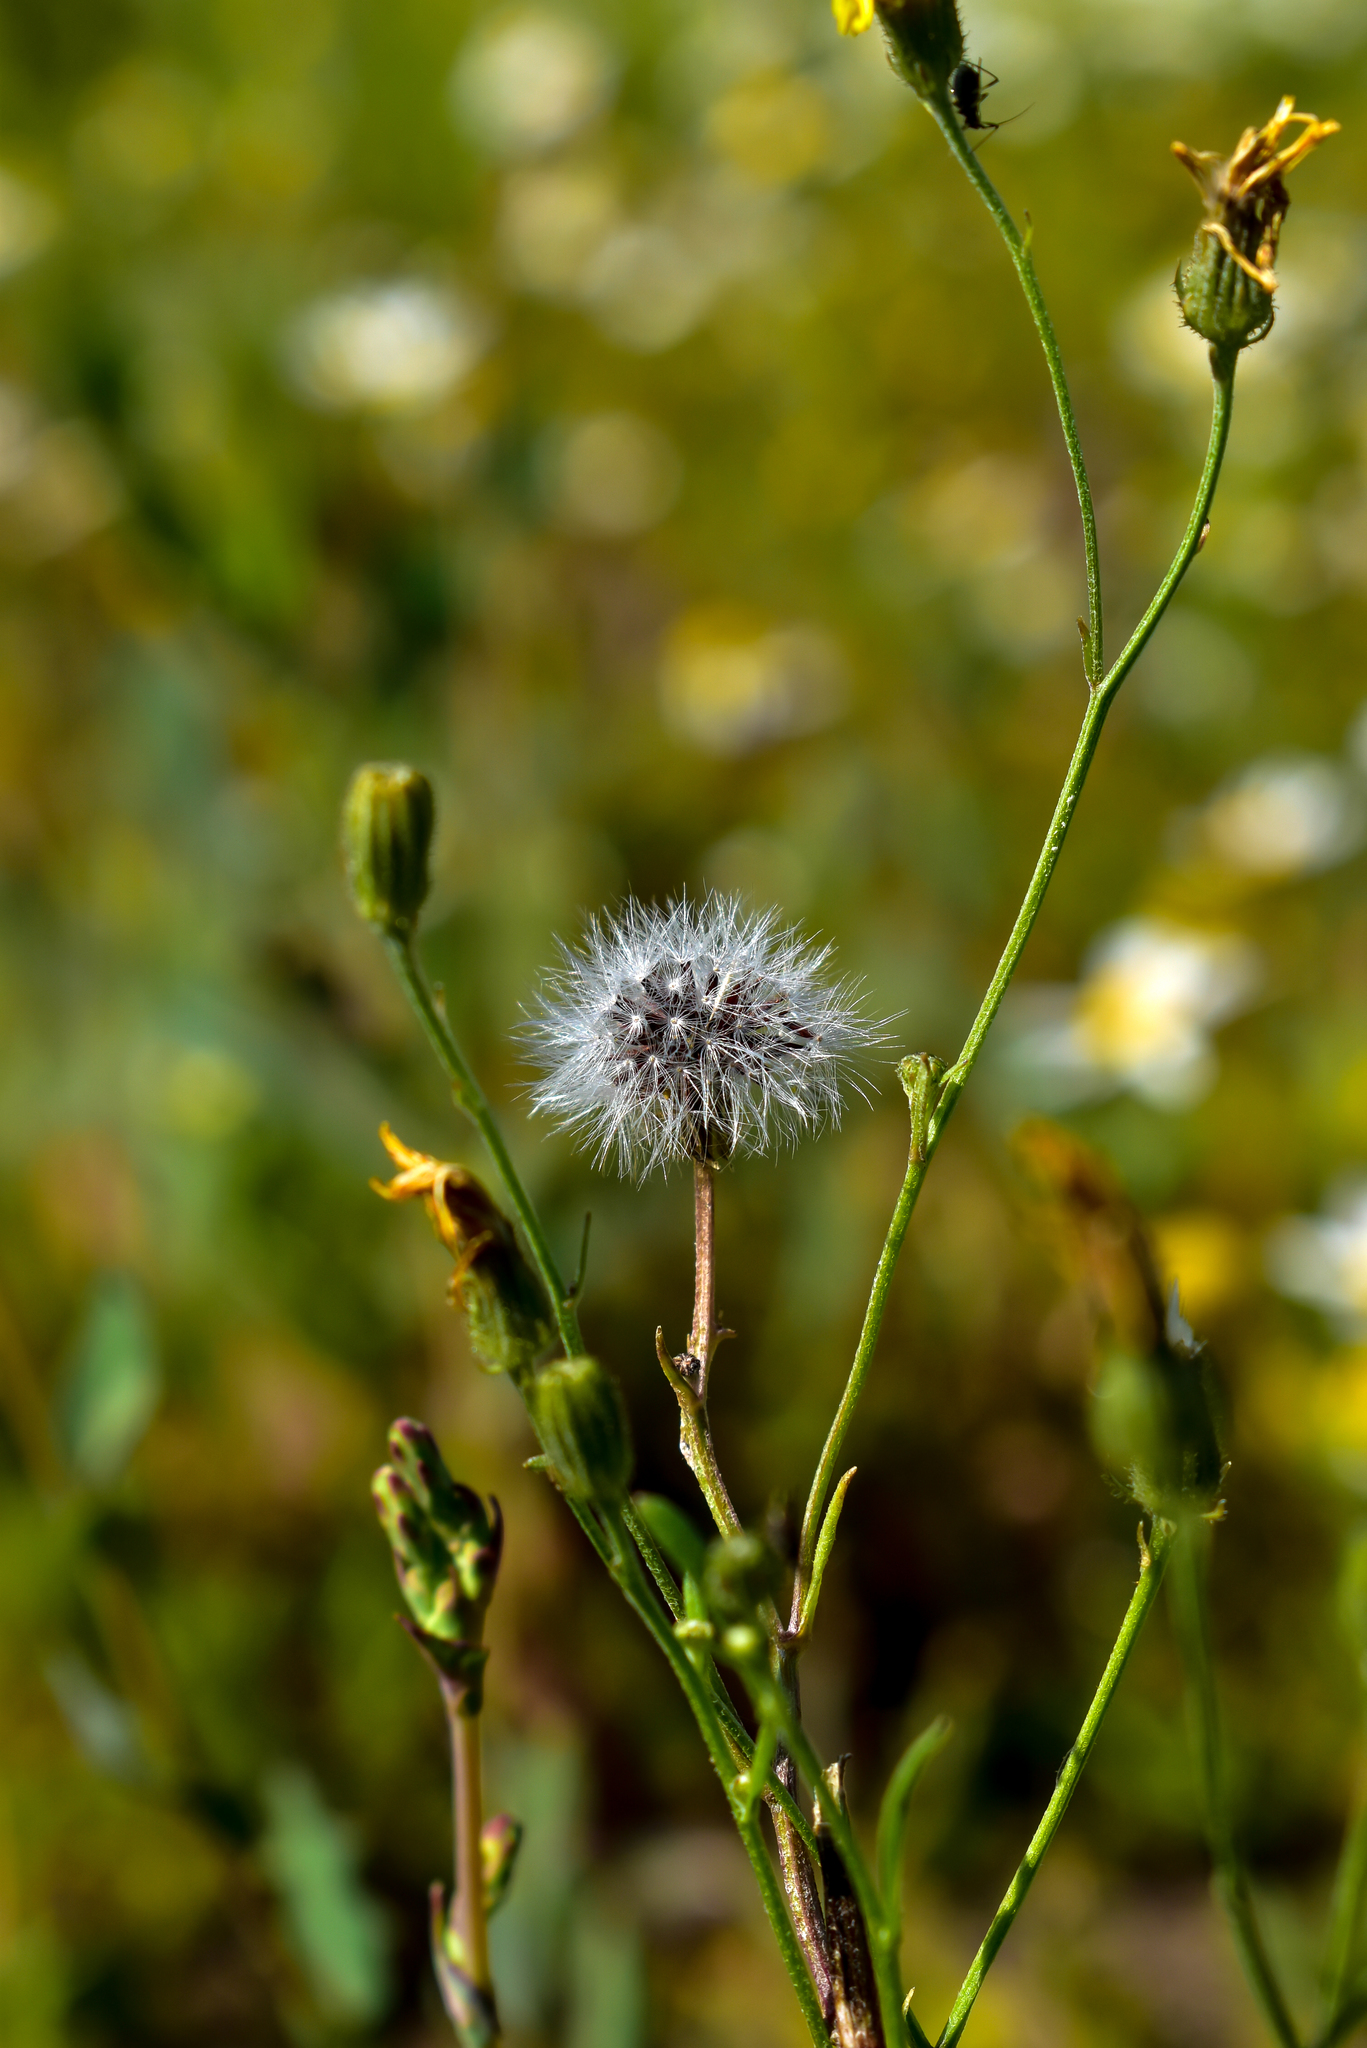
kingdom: Plantae
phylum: Tracheophyta
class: Magnoliopsida
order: Asterales
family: Asteraceae
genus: Crepis
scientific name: Crepis tectorum
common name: Narrow-leaved hawk's-beard
